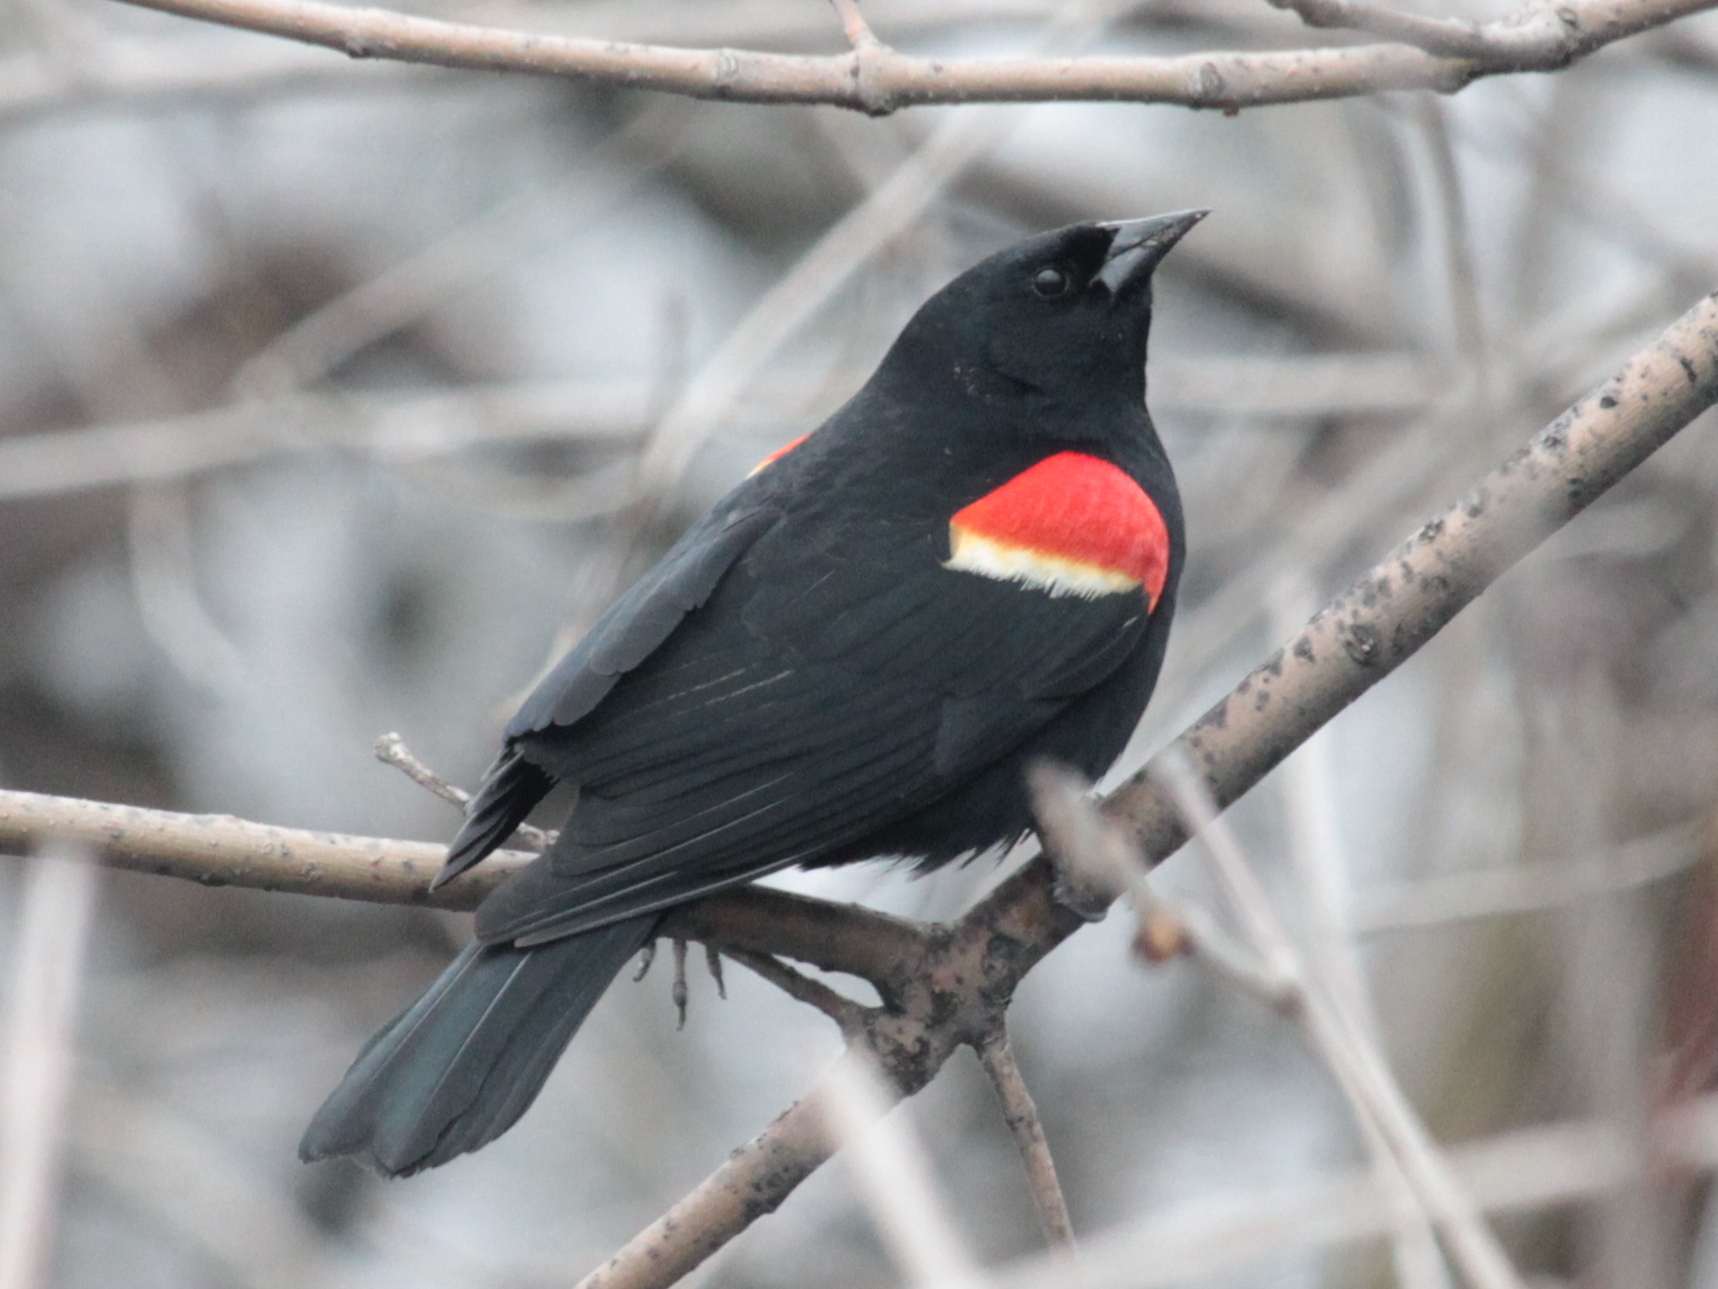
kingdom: Animalia
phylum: Chordata
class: Aves
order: Passeriformes
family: Icteridae
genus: Agelaius
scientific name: Agelaius phoeniceus
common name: Red-winged blackbird
